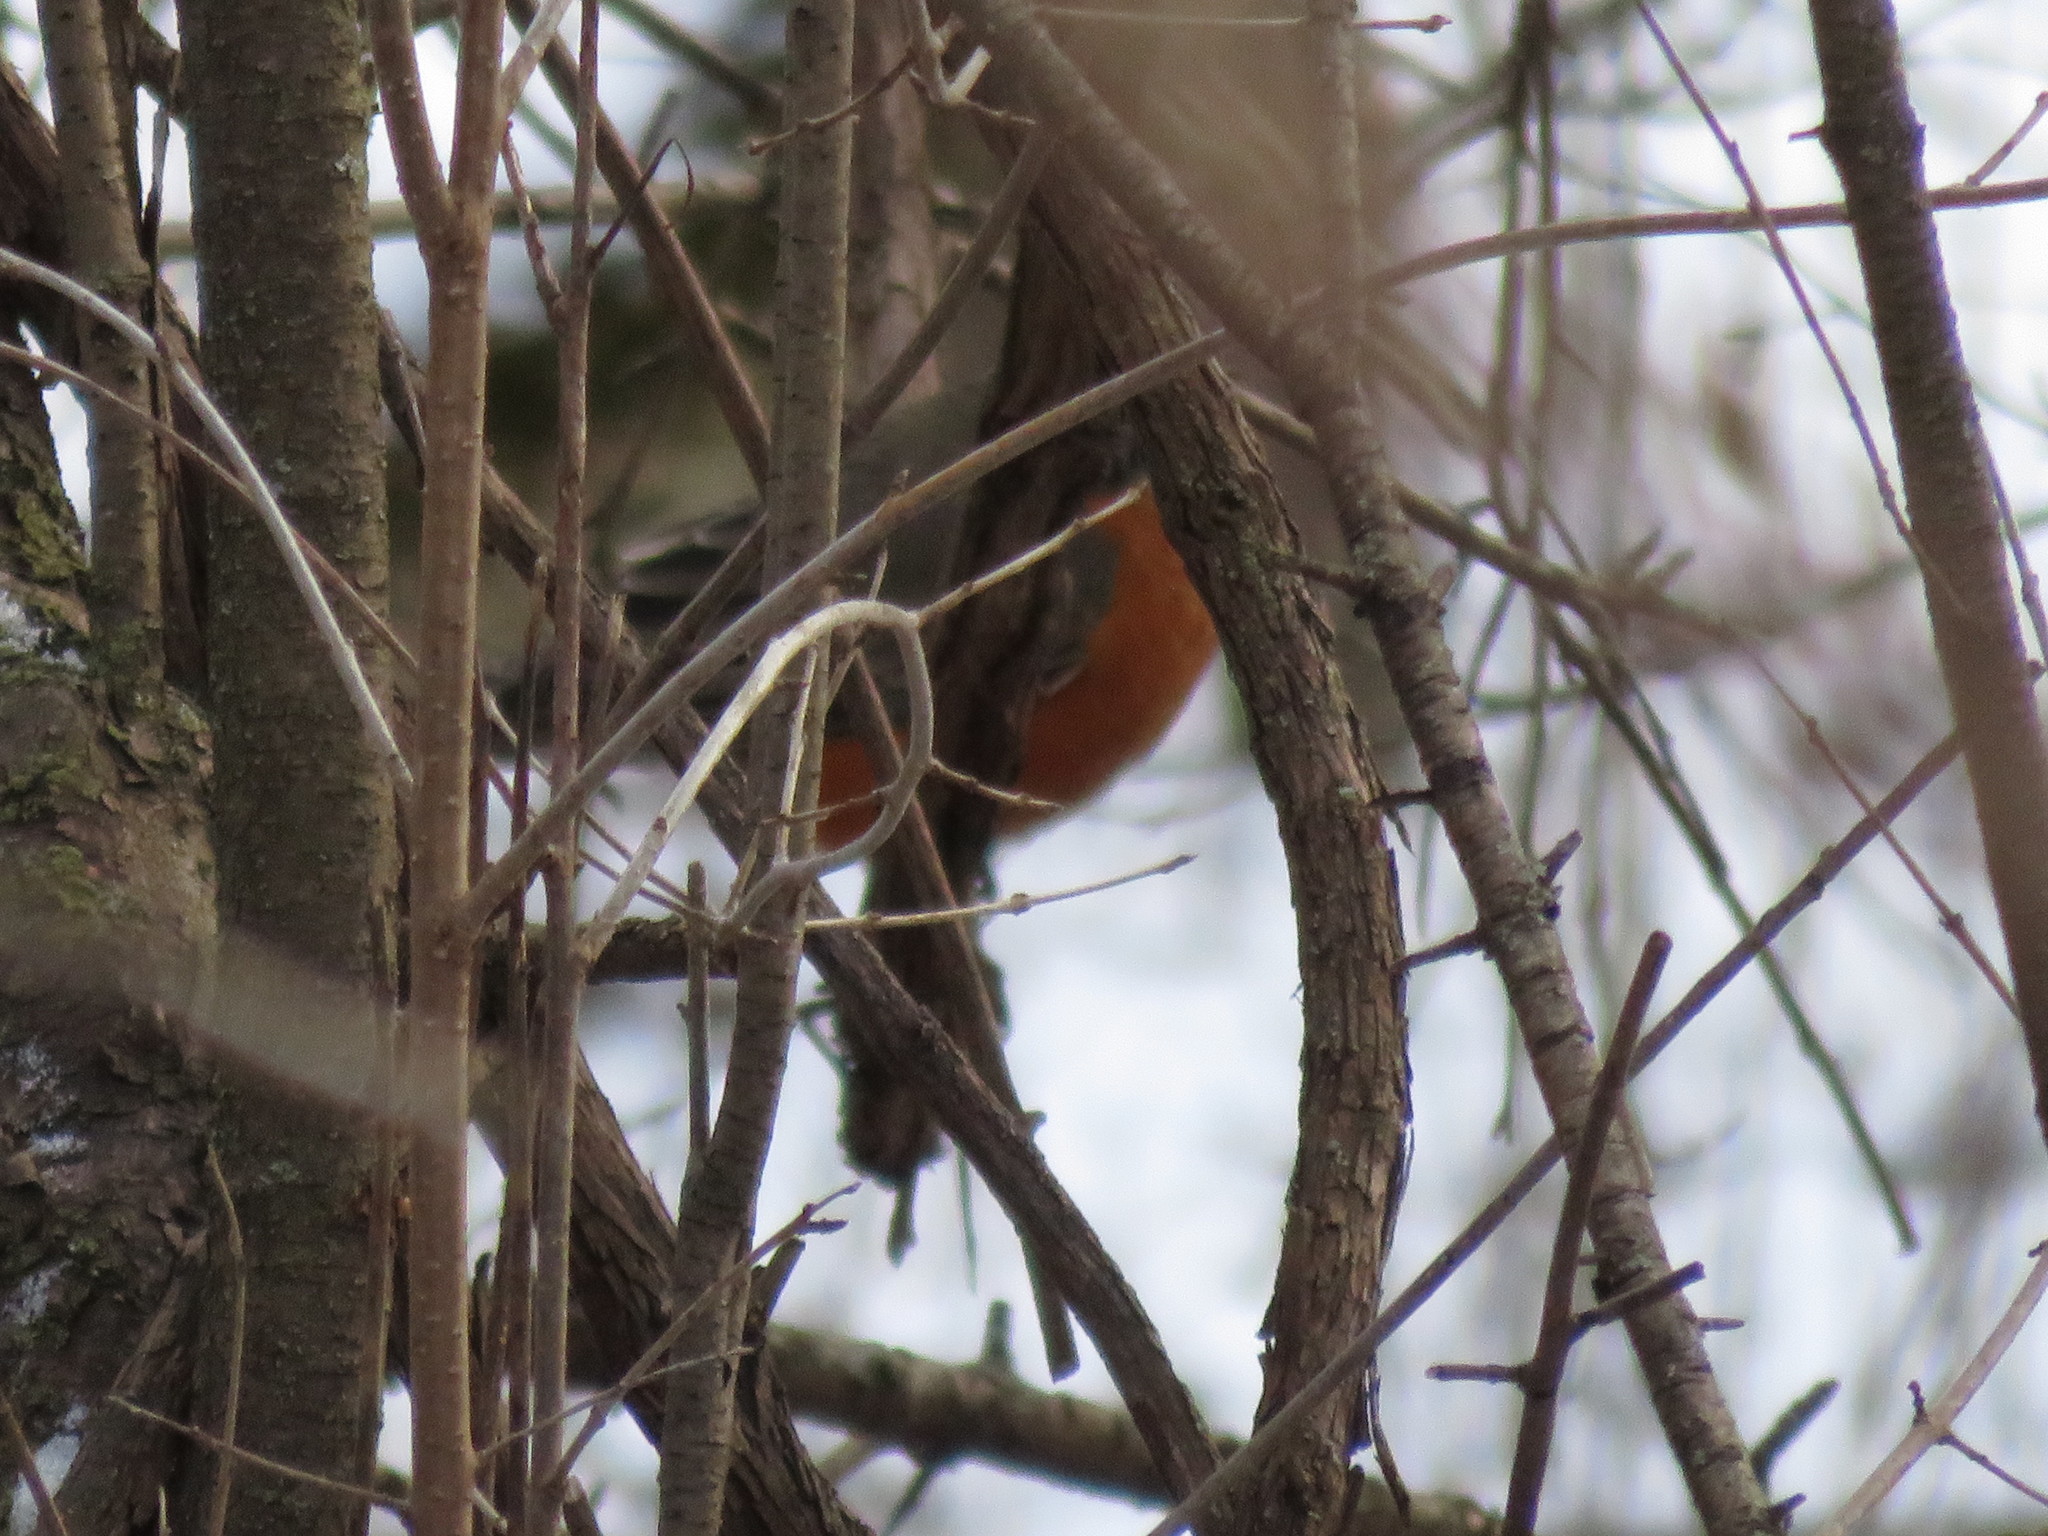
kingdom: Animalia
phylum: Chordata
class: Aves
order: Passeriformes
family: Turdidae
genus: Turdus
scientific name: Turdus migratorius
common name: American robin
